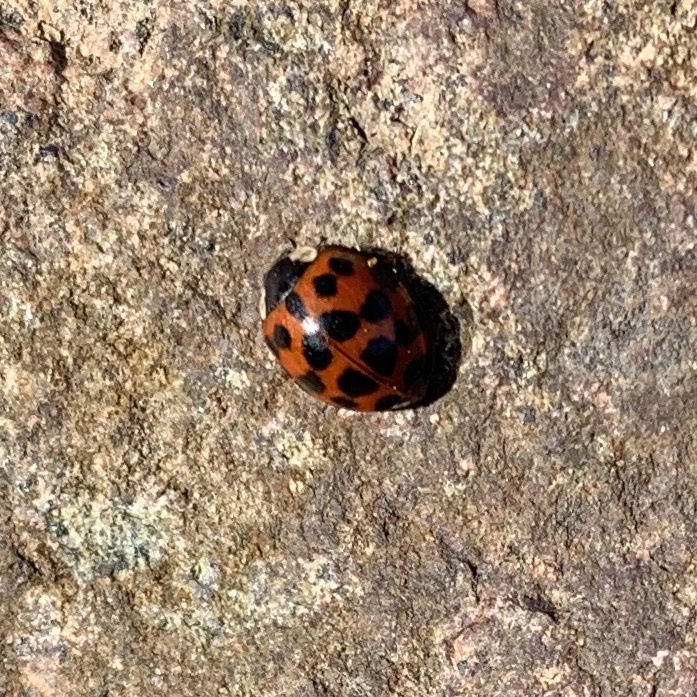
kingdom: Animalia
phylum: Arthropoda
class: Insecta
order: Coleoptera
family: Coccinellidae
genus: Harmonia
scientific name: Harmonia axyridis
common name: Harlequin ladybird
